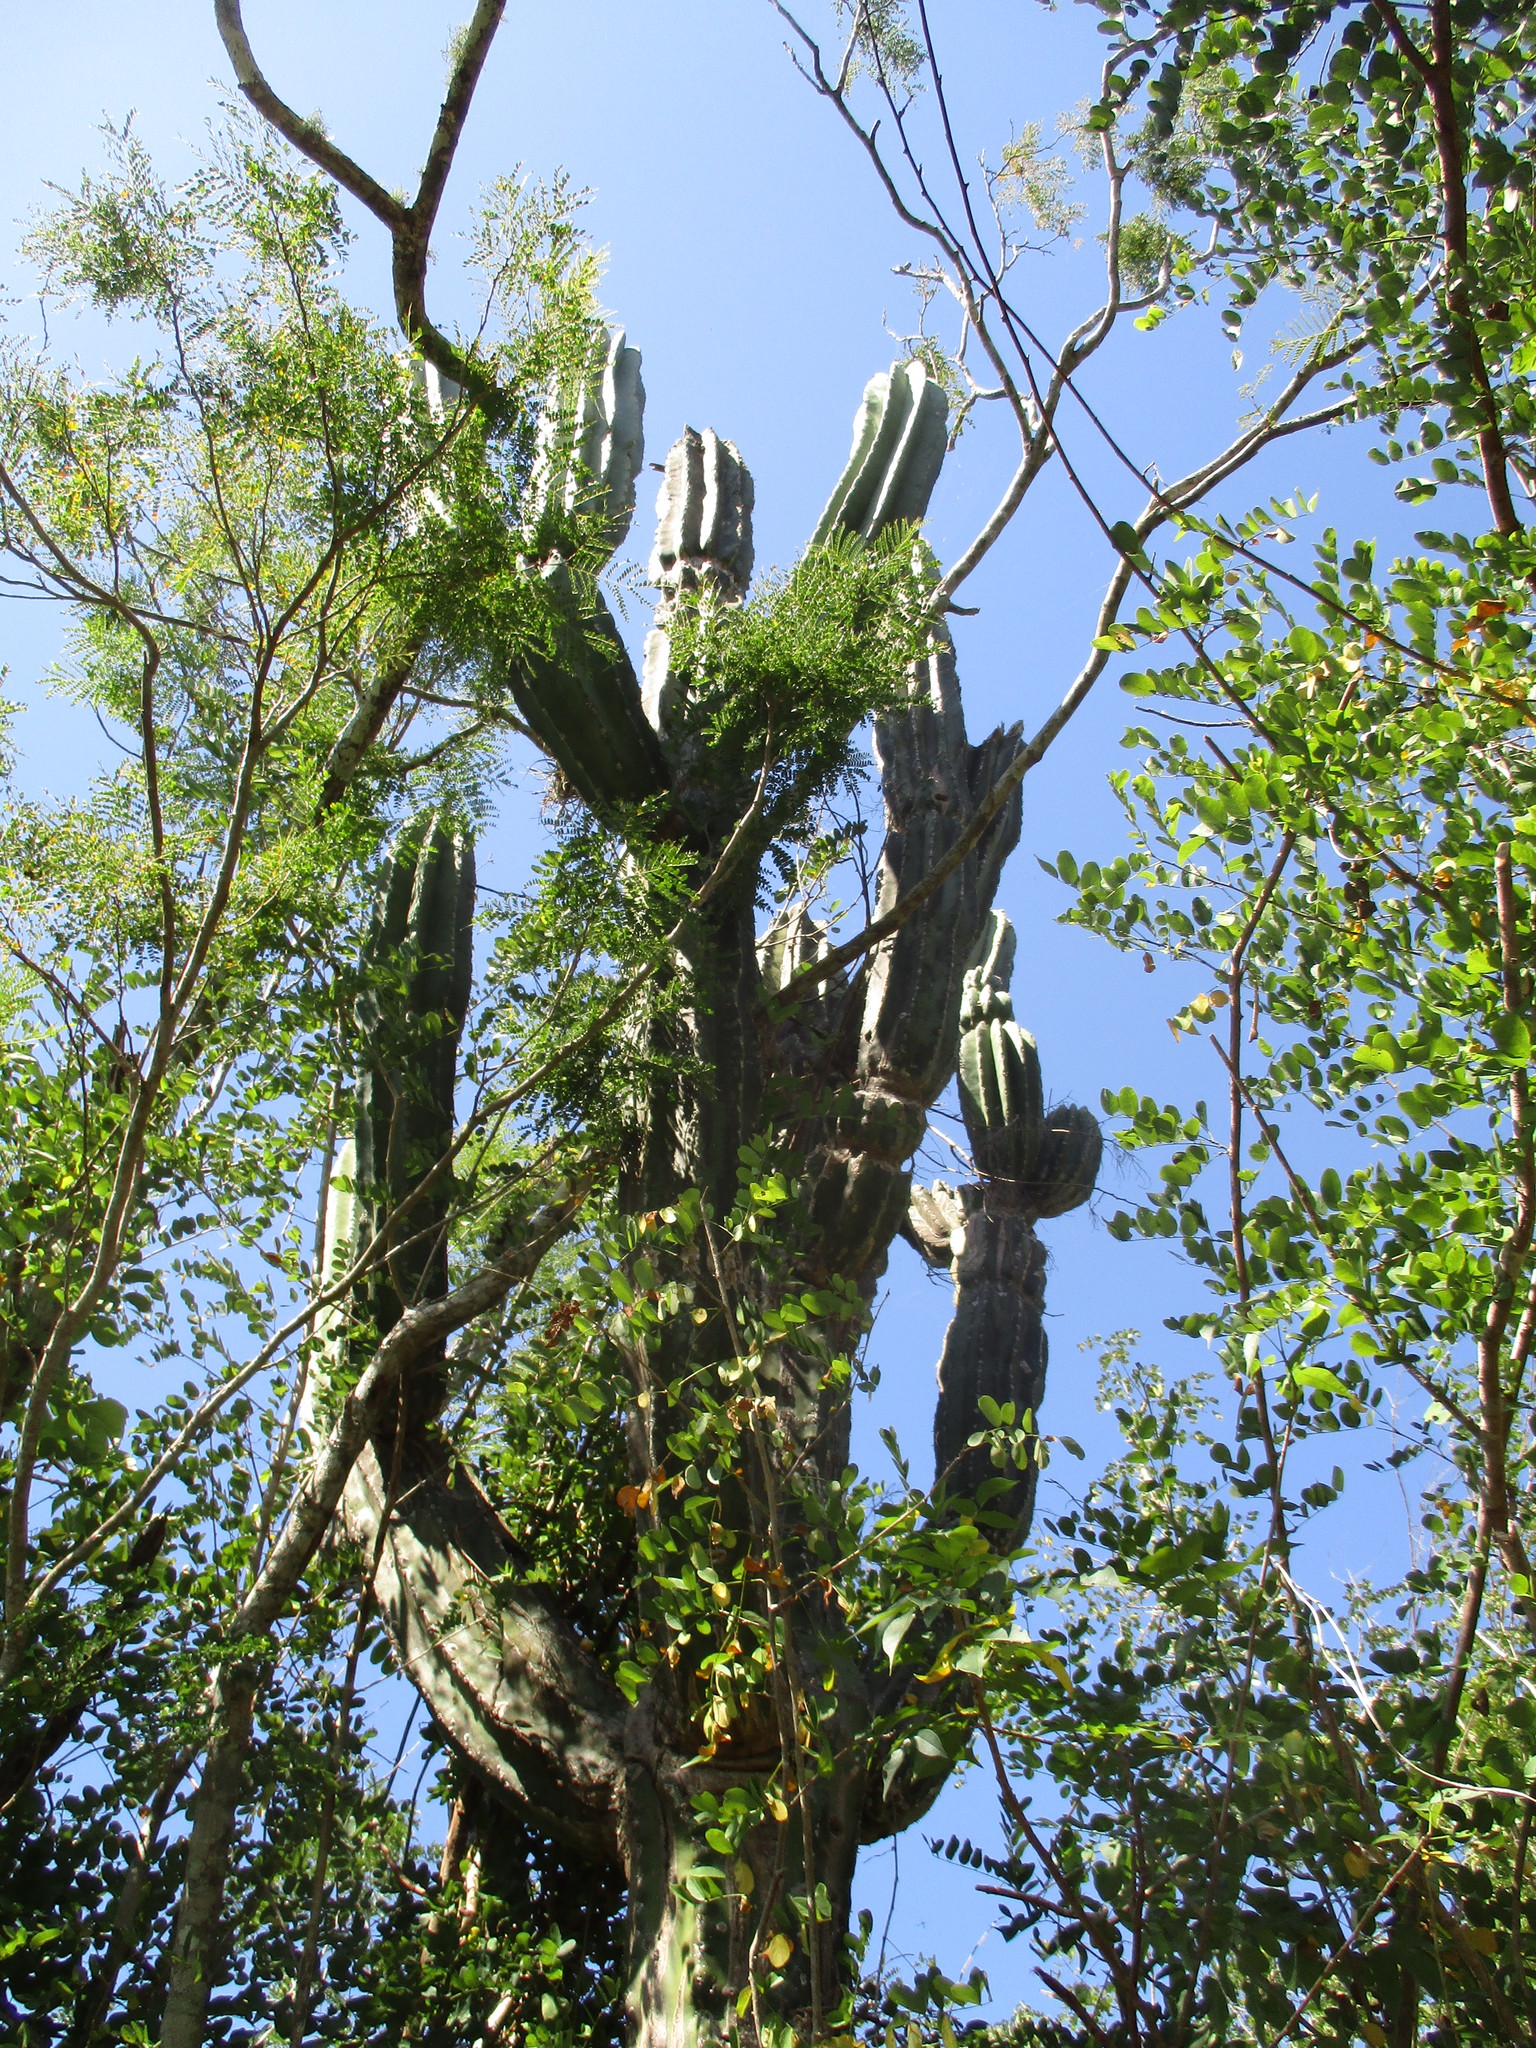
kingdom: Plantae
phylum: Tracheophyta
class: Magnoliopsida
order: Caryophyllales
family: Cactaceae
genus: Pachycereus
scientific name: Pachycereus pecten-aboriginum
